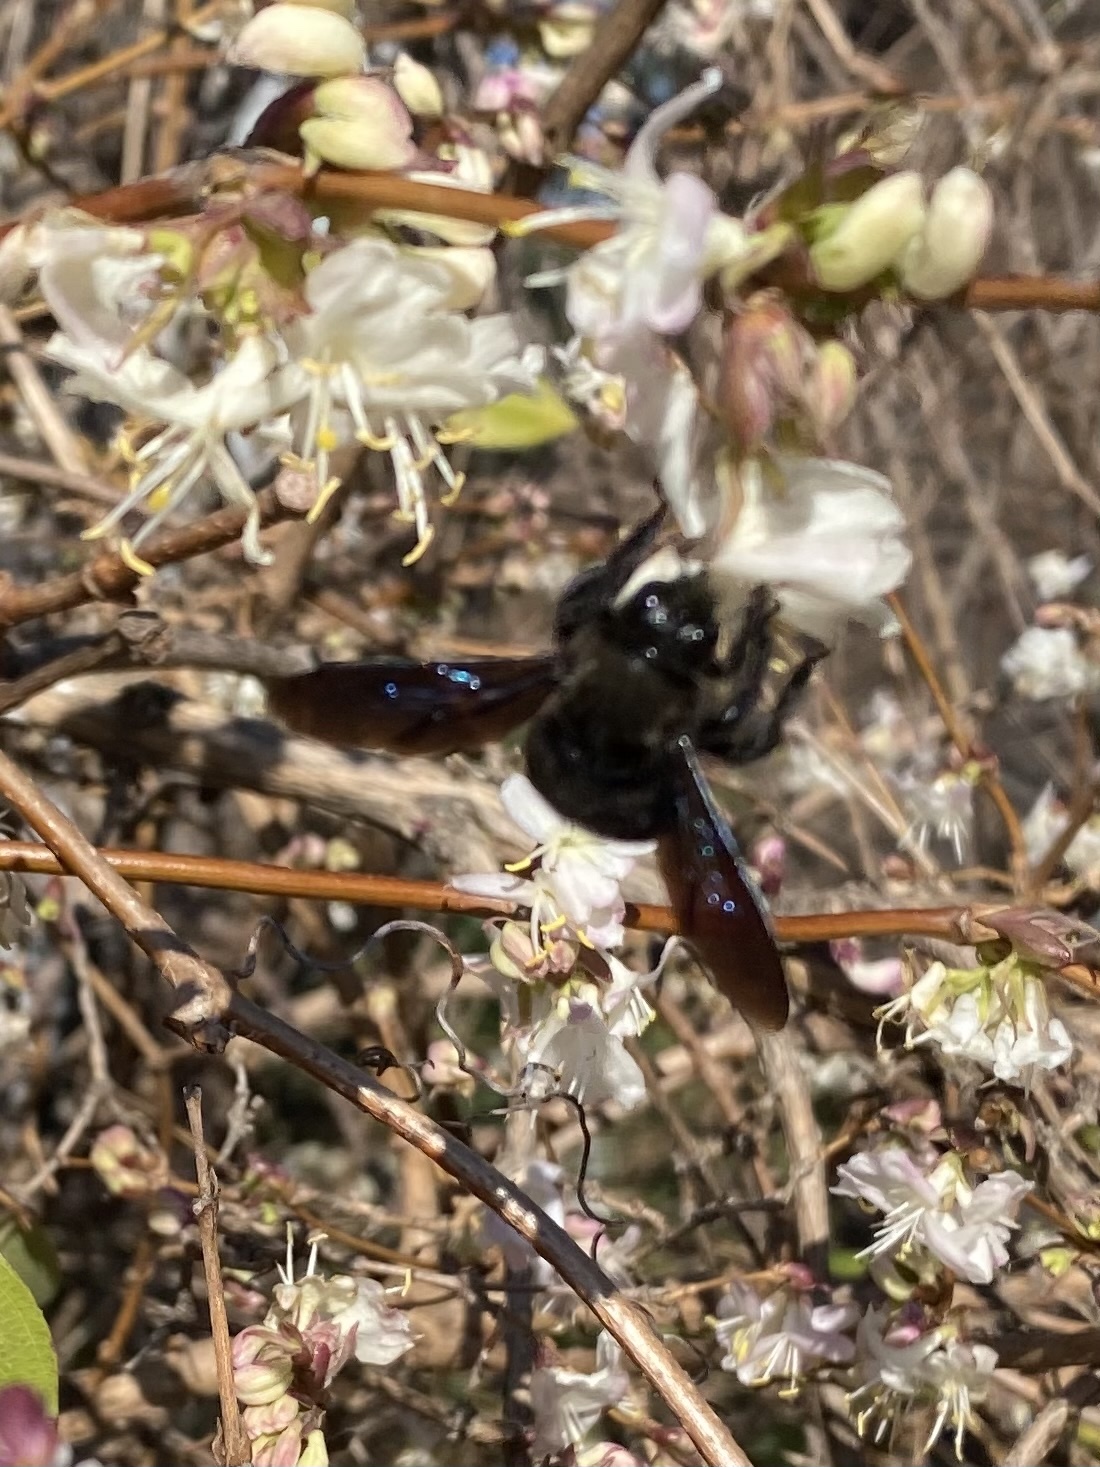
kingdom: Animalia
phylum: Arthropoda
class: Insecta
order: Hymenoptera
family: Apidae
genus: Xylocopa
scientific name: Xylocopa violacea
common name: Violet carpenter bee
